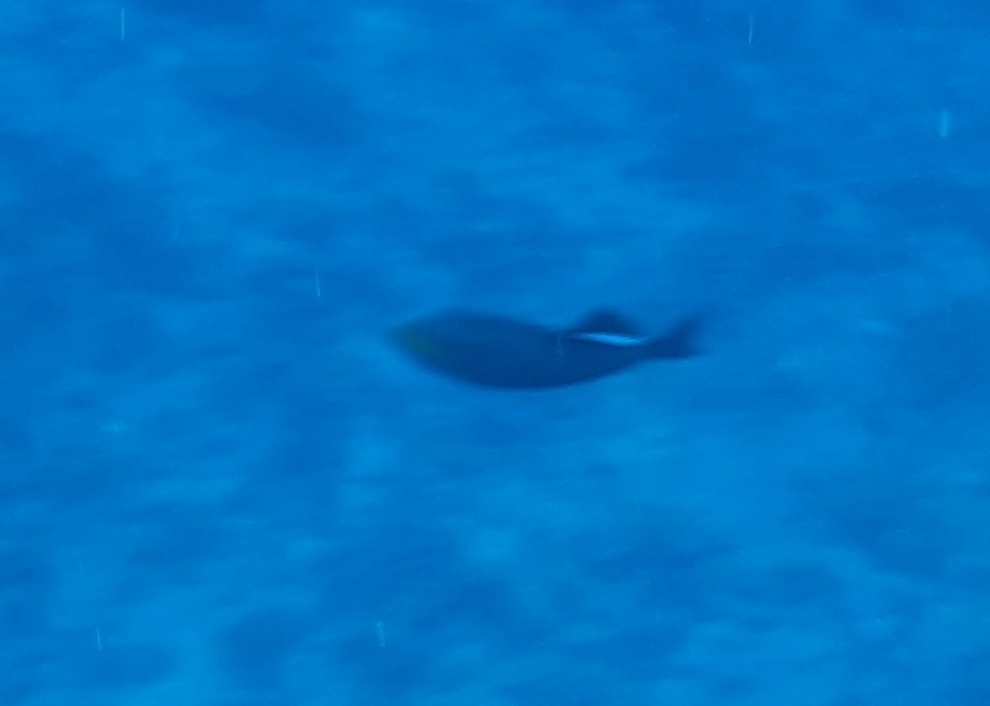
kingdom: Animalia
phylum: Chordata
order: Tetraodontiformes
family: Balistidae
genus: Melichthys
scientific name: Melichthys niger
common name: Black durgon
